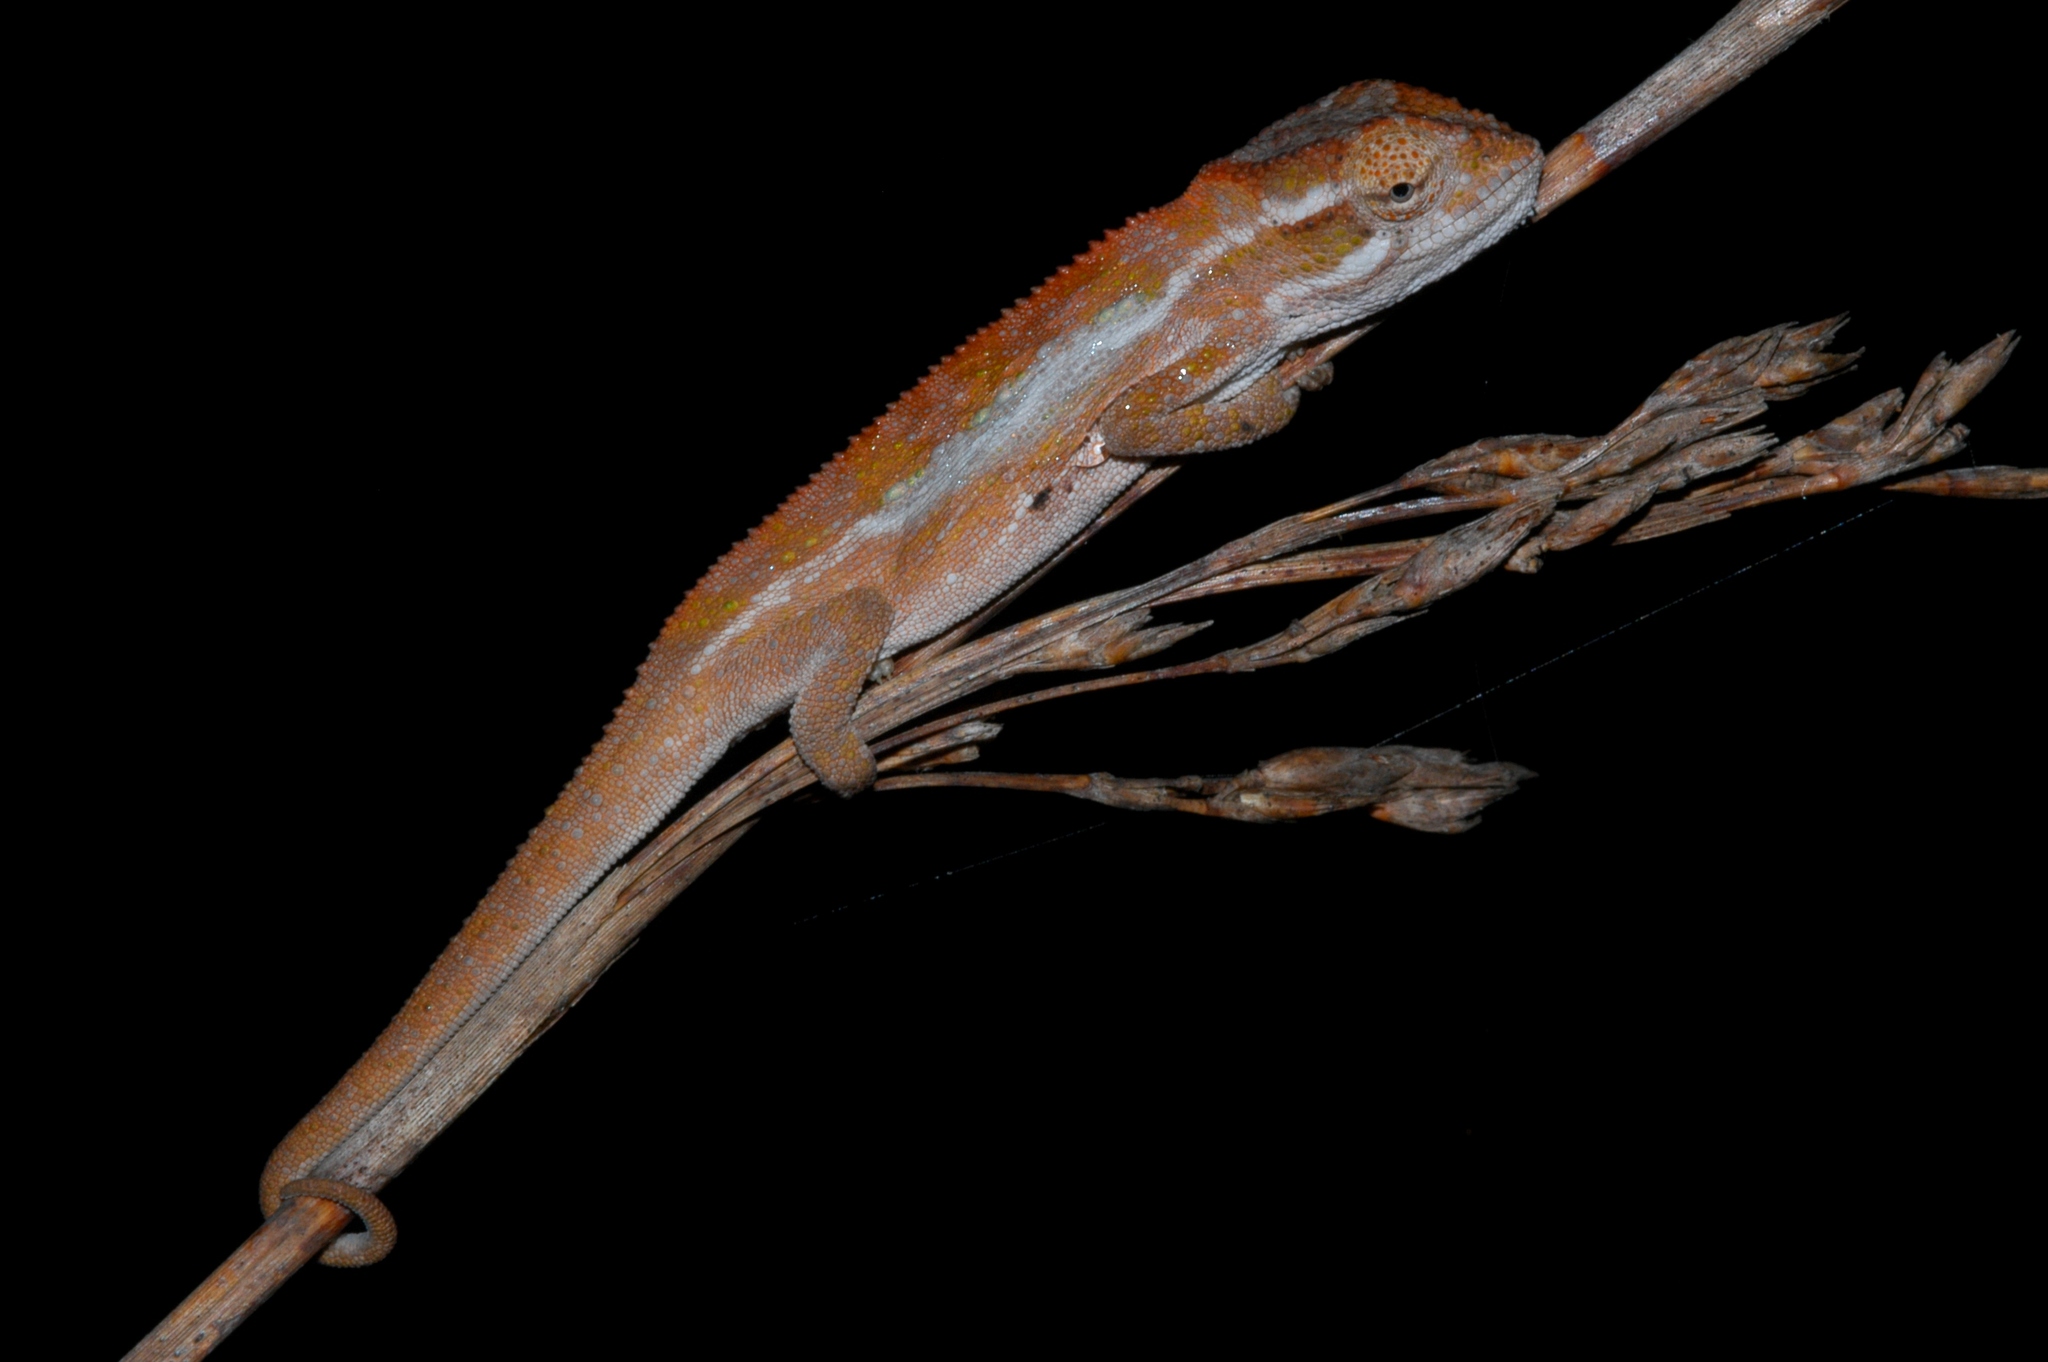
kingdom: Animalia
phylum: Chordata
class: Squamata
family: Chamaeleonidae
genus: Bradypodion
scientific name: Bradypodion taeniabronchum
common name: Elandsberg dwarf chameleon
